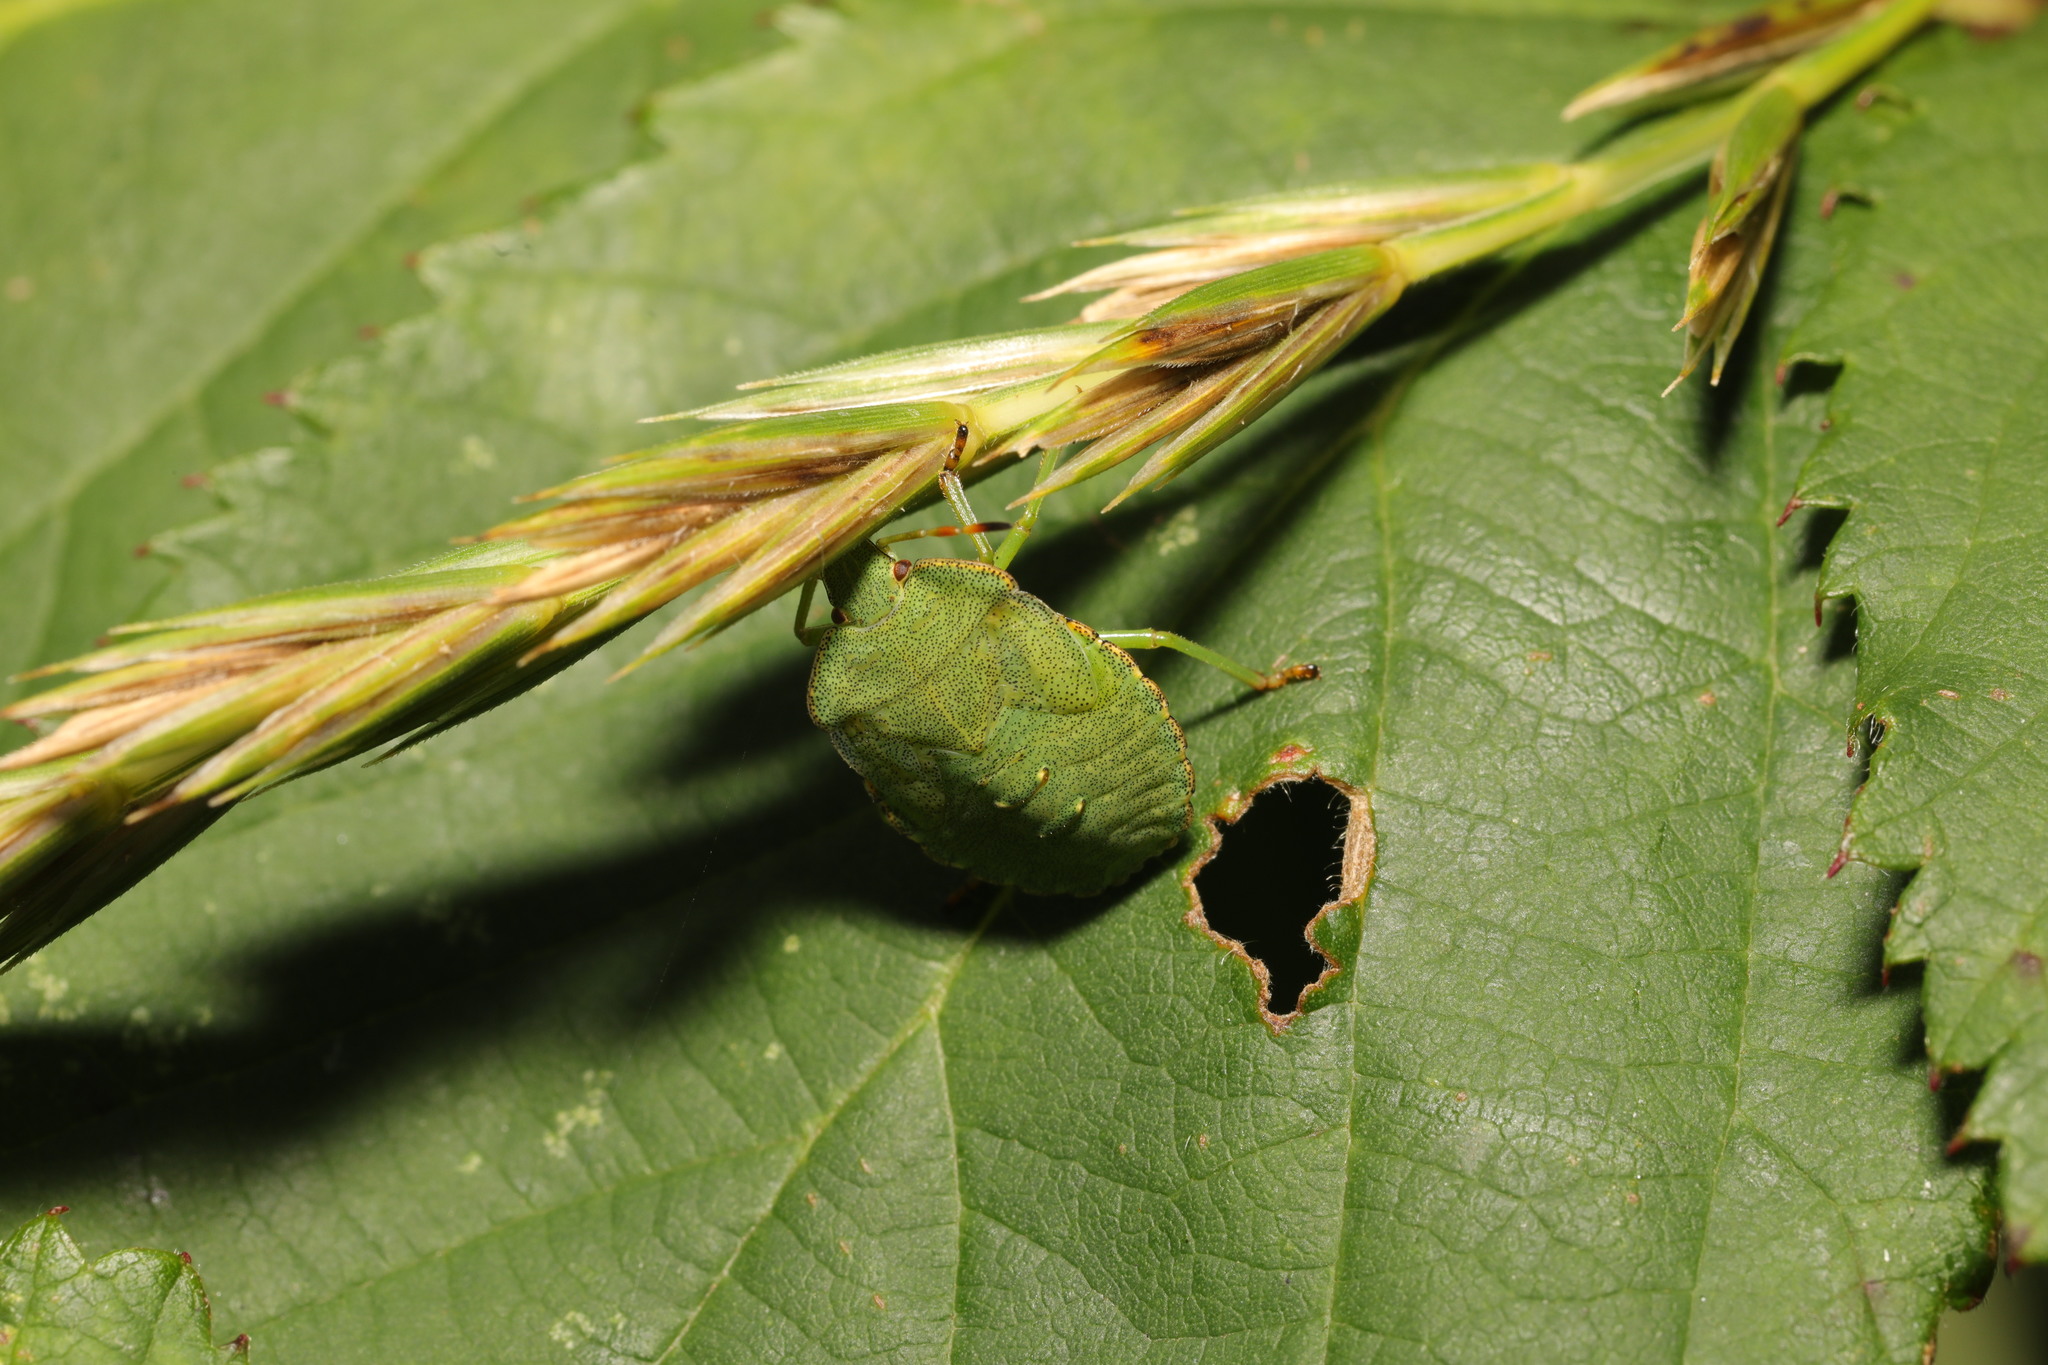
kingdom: Animalia
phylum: Arthropoda
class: Insecta
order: Hemiptera
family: Pentatomidae
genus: Palomena
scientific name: Palomena prasina
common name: Green shieldbug
